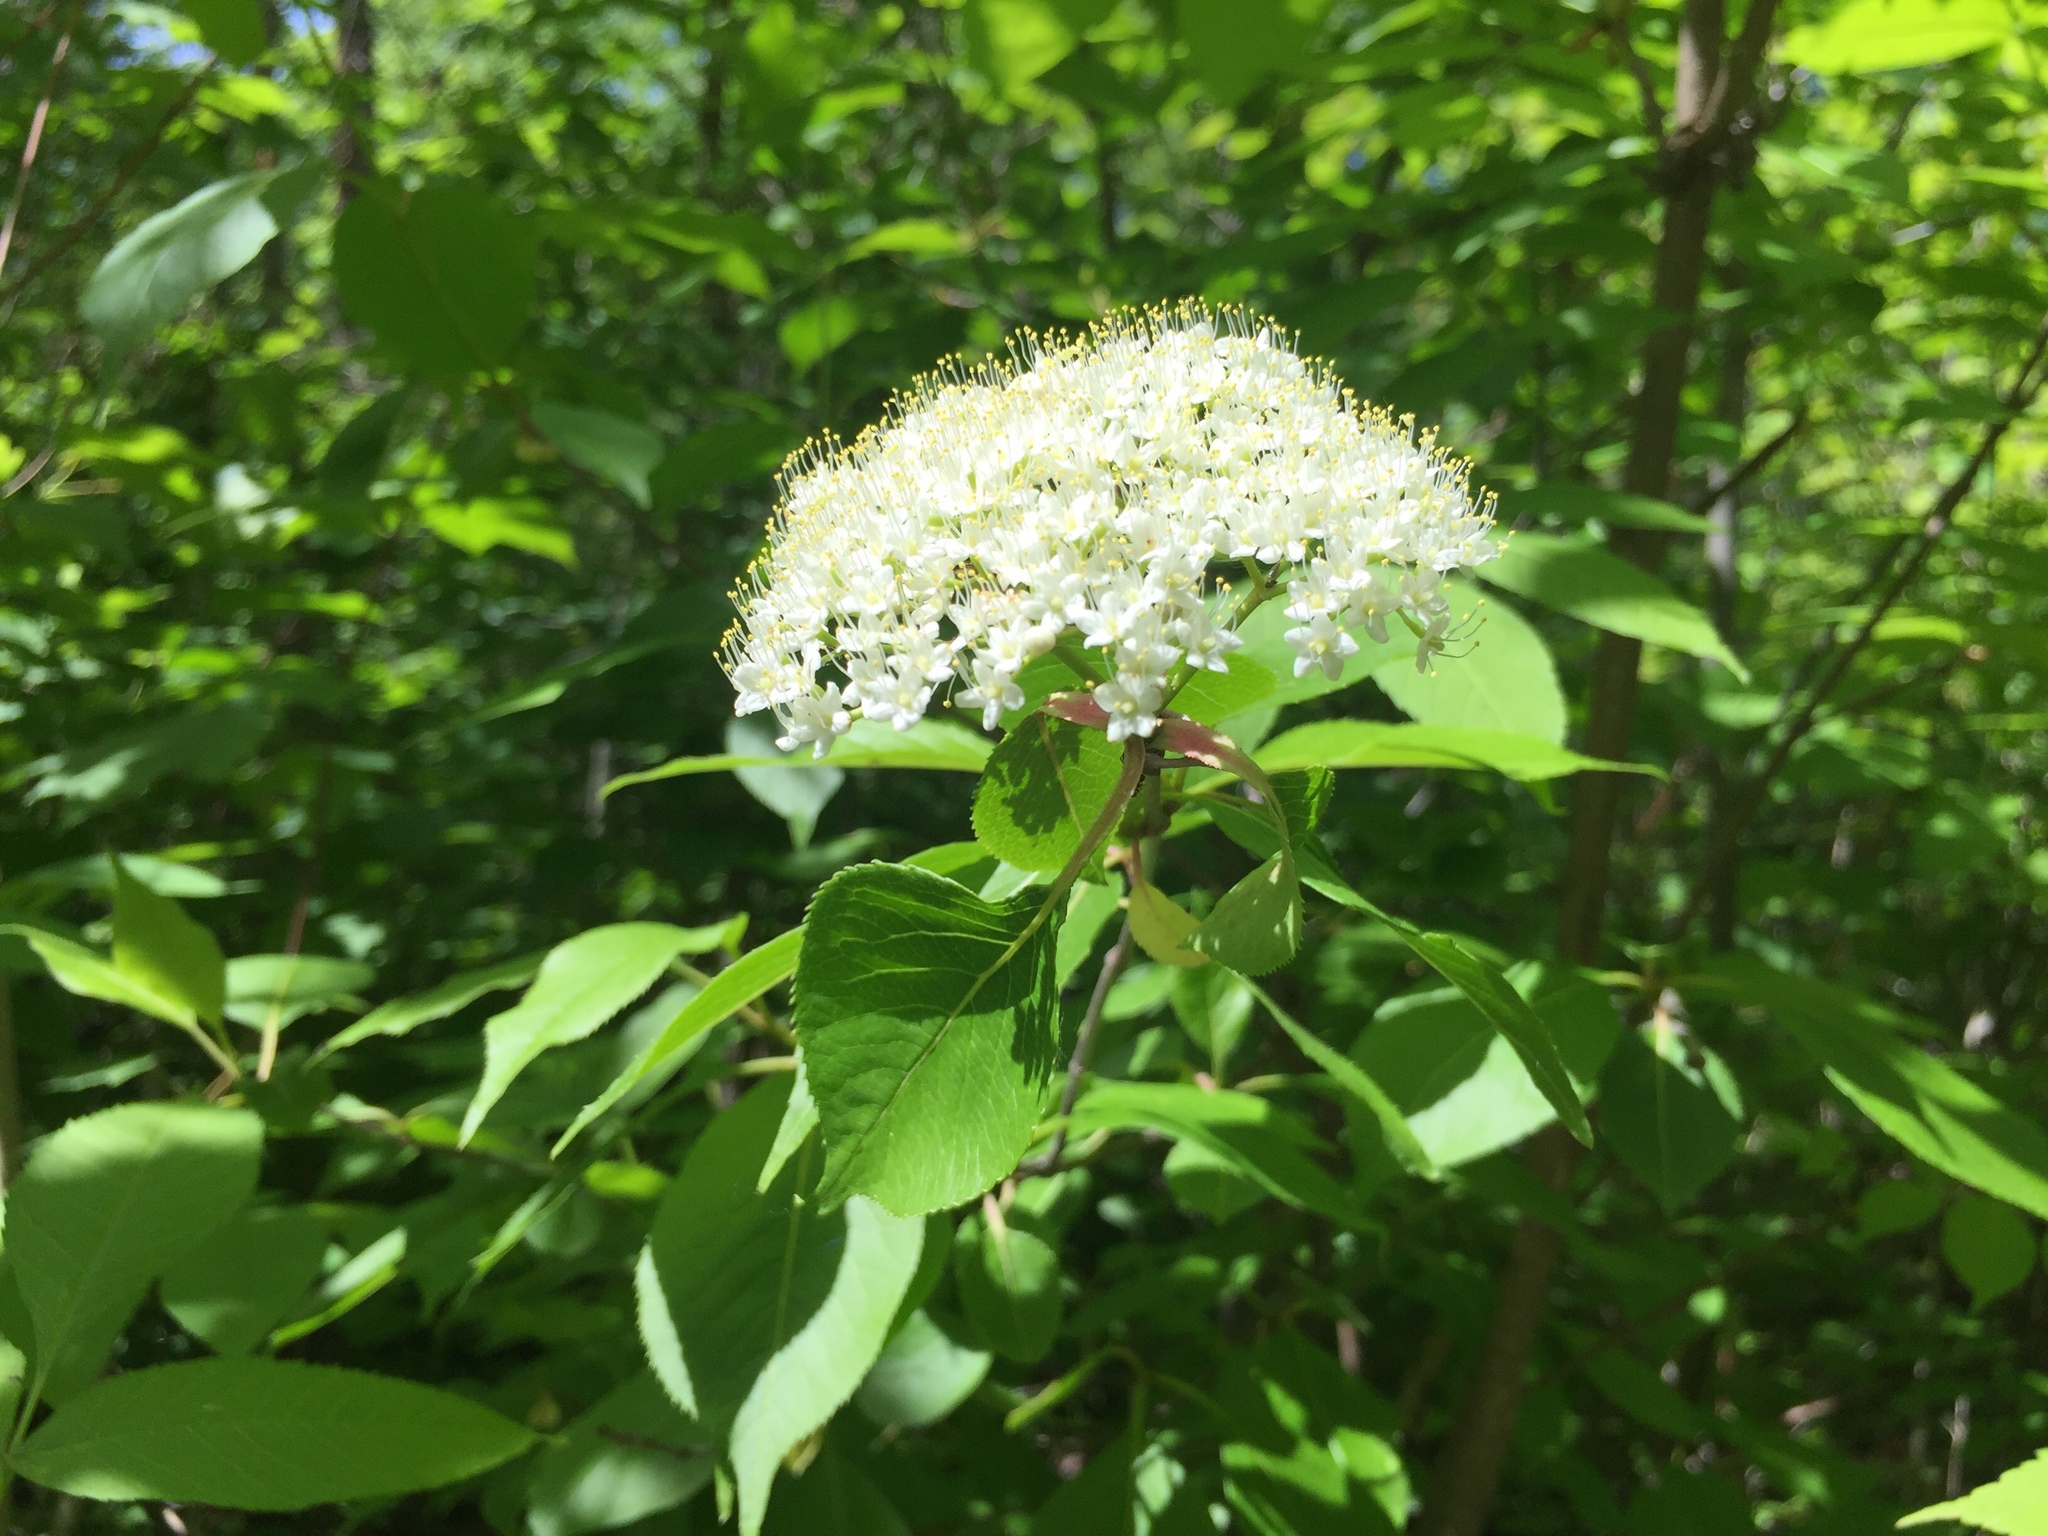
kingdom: Plantae
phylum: Tracheophyta
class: Magnoliopsida
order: Dipsacales
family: Viburnaceae
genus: Viburnum
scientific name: Viburnum lentago
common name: Black haw
